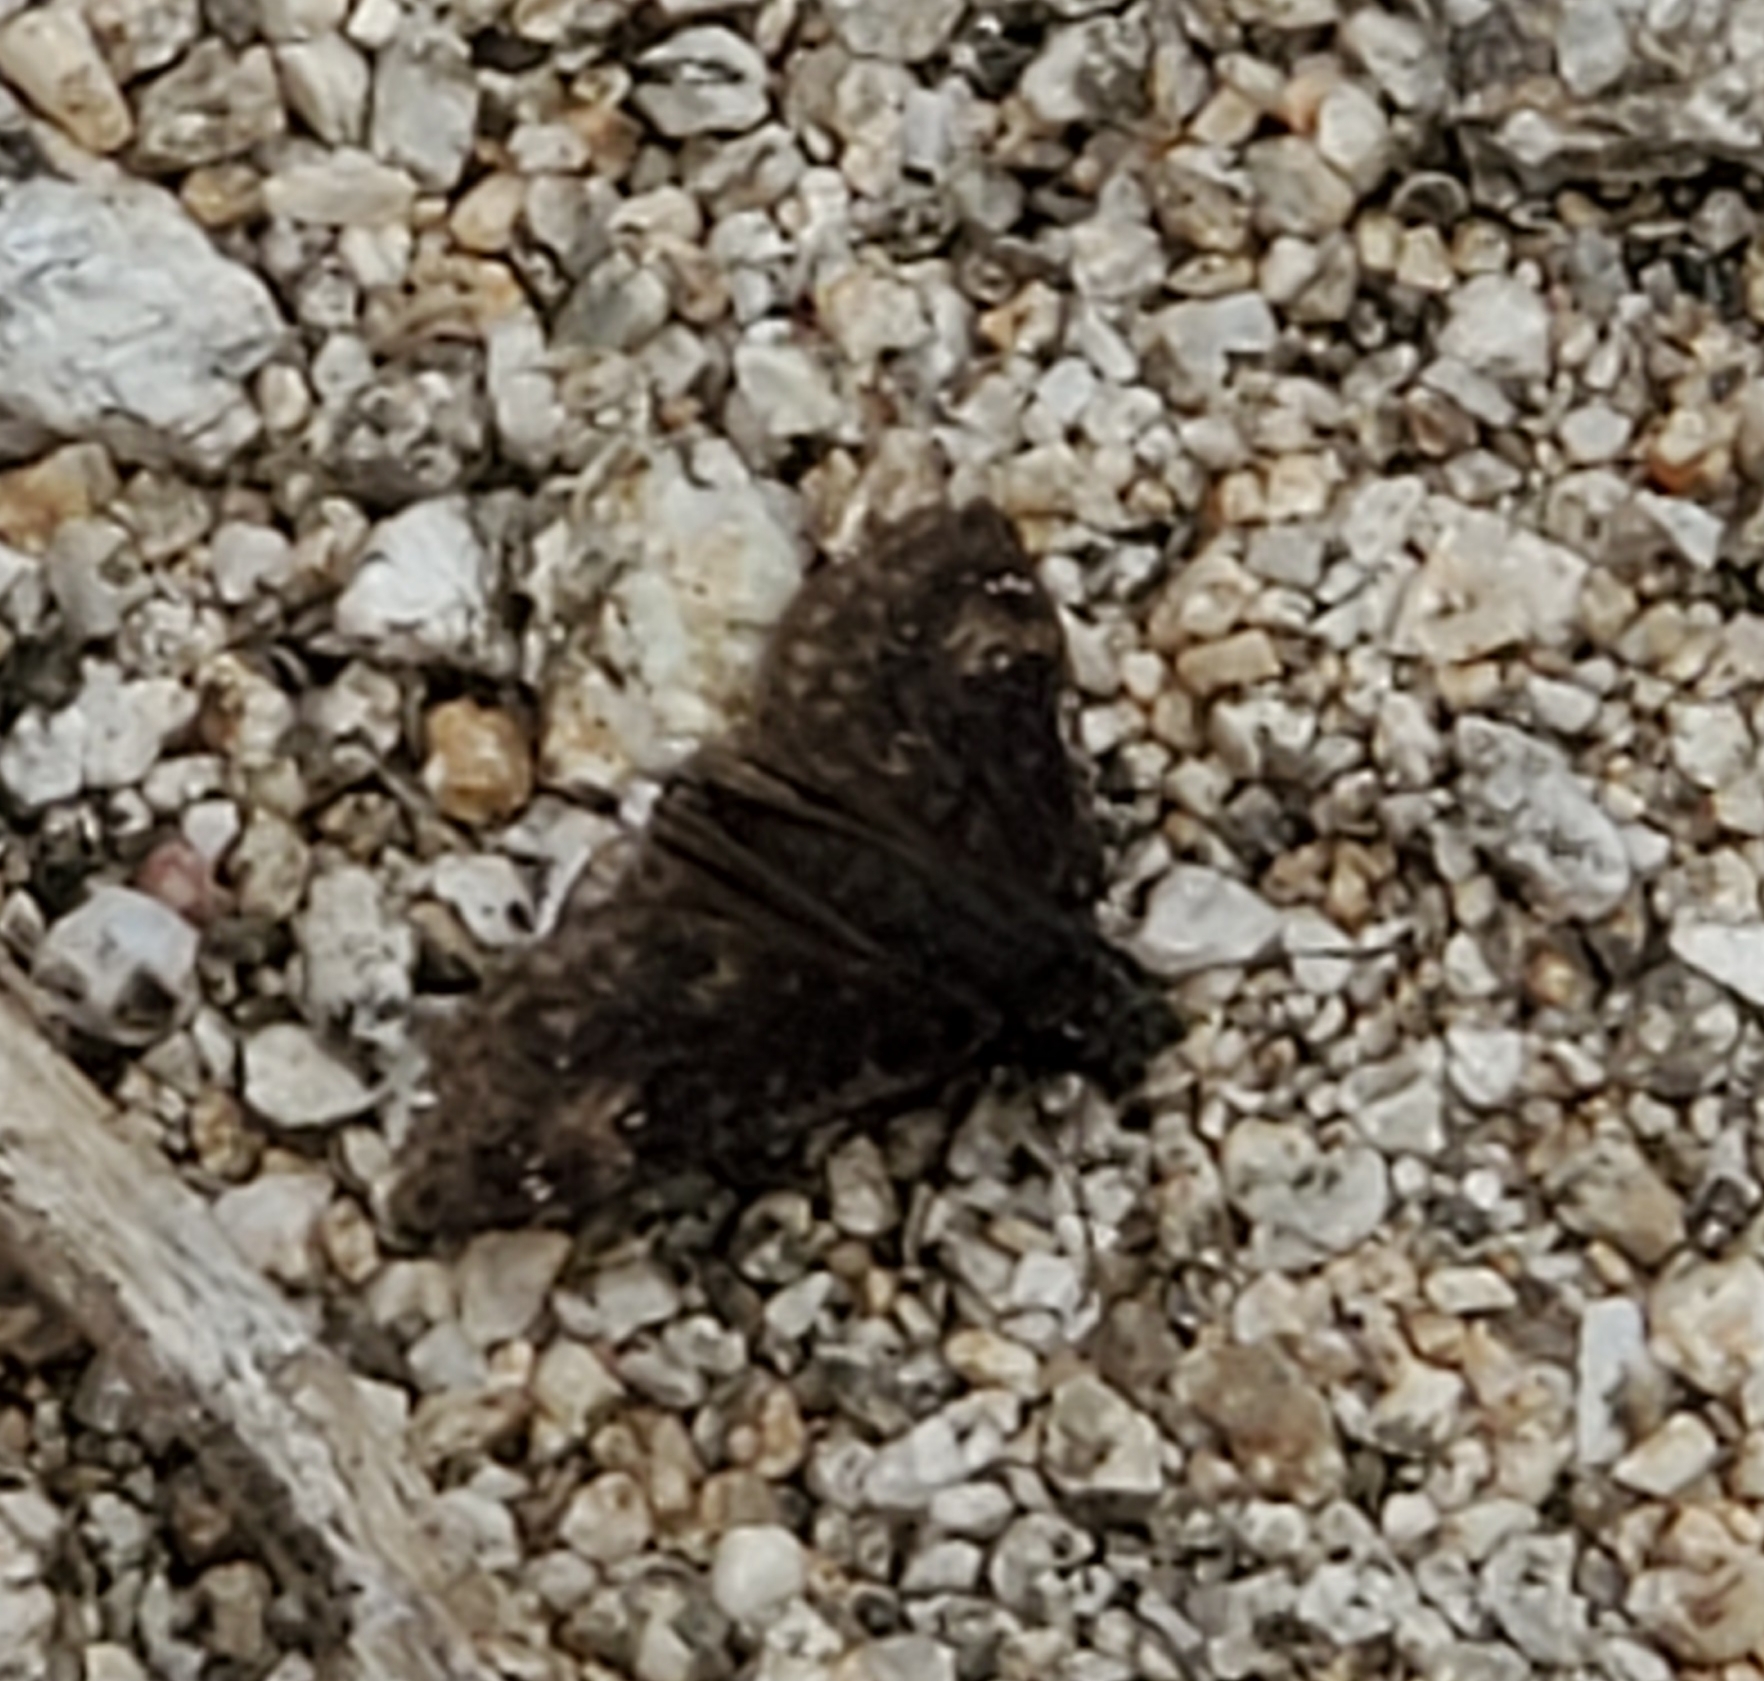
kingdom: Animalia
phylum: Arthropoda
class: Insecta
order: Lepidoptera
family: Hesperiidae
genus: Erynnis
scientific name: Erynnis funeralis
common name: Funereal duskywing
